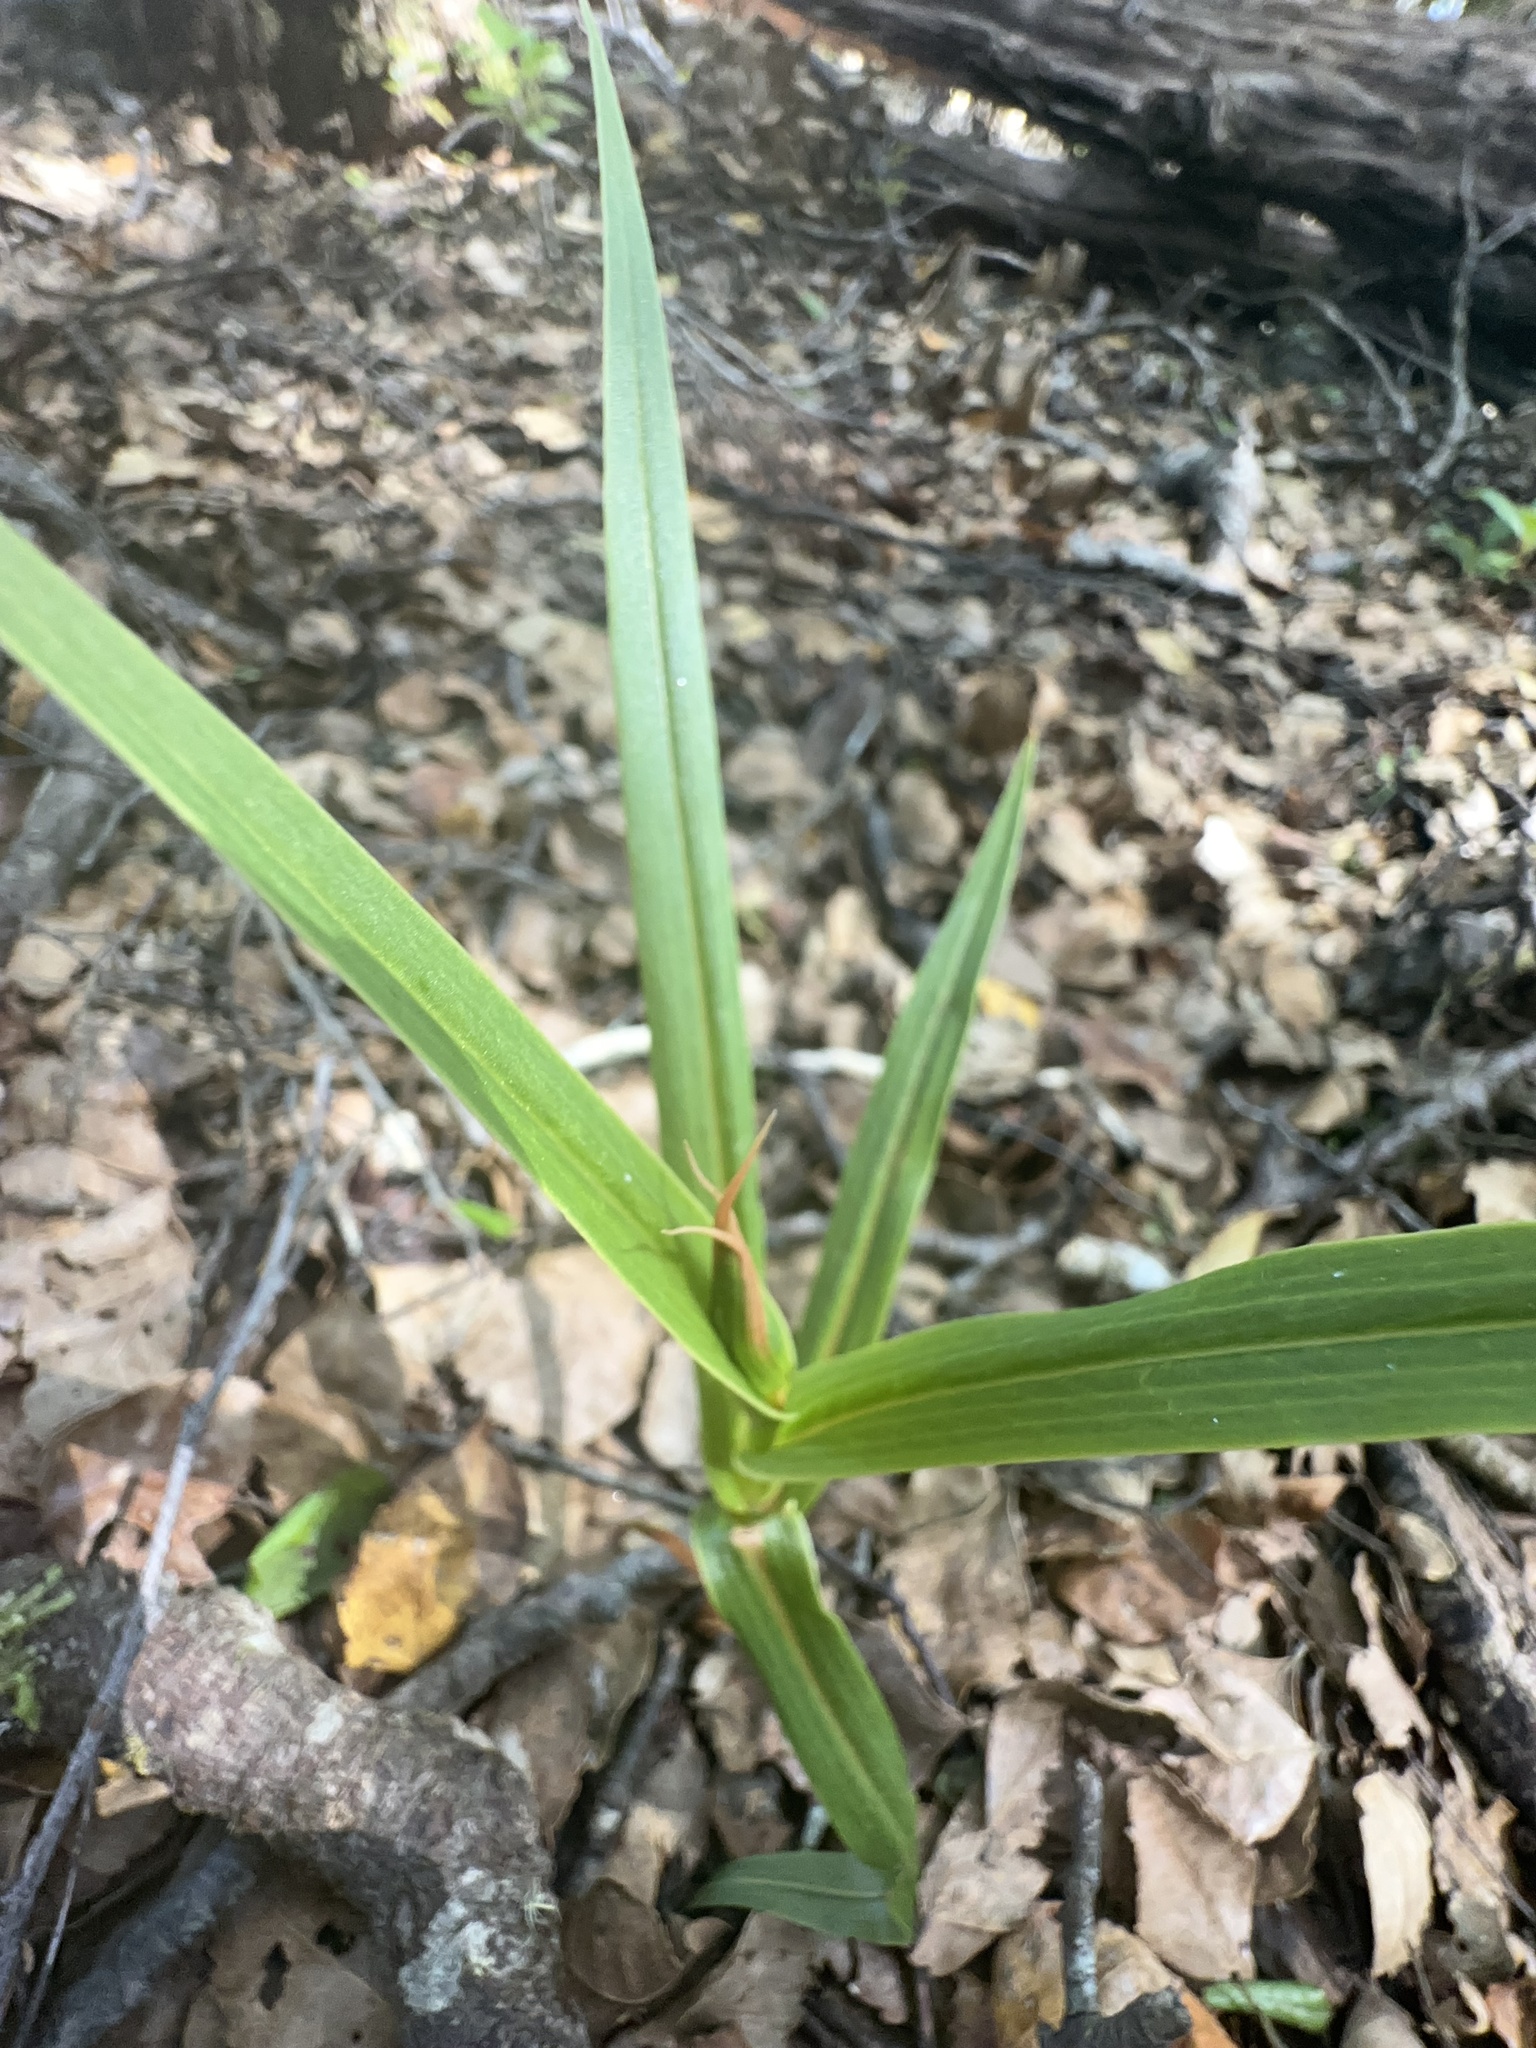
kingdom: Plantae
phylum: Tracheophyta
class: Liliopsida
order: Asparagales
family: Orchidaceae
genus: Pterostylis
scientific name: Pterostylis cardiostigma
